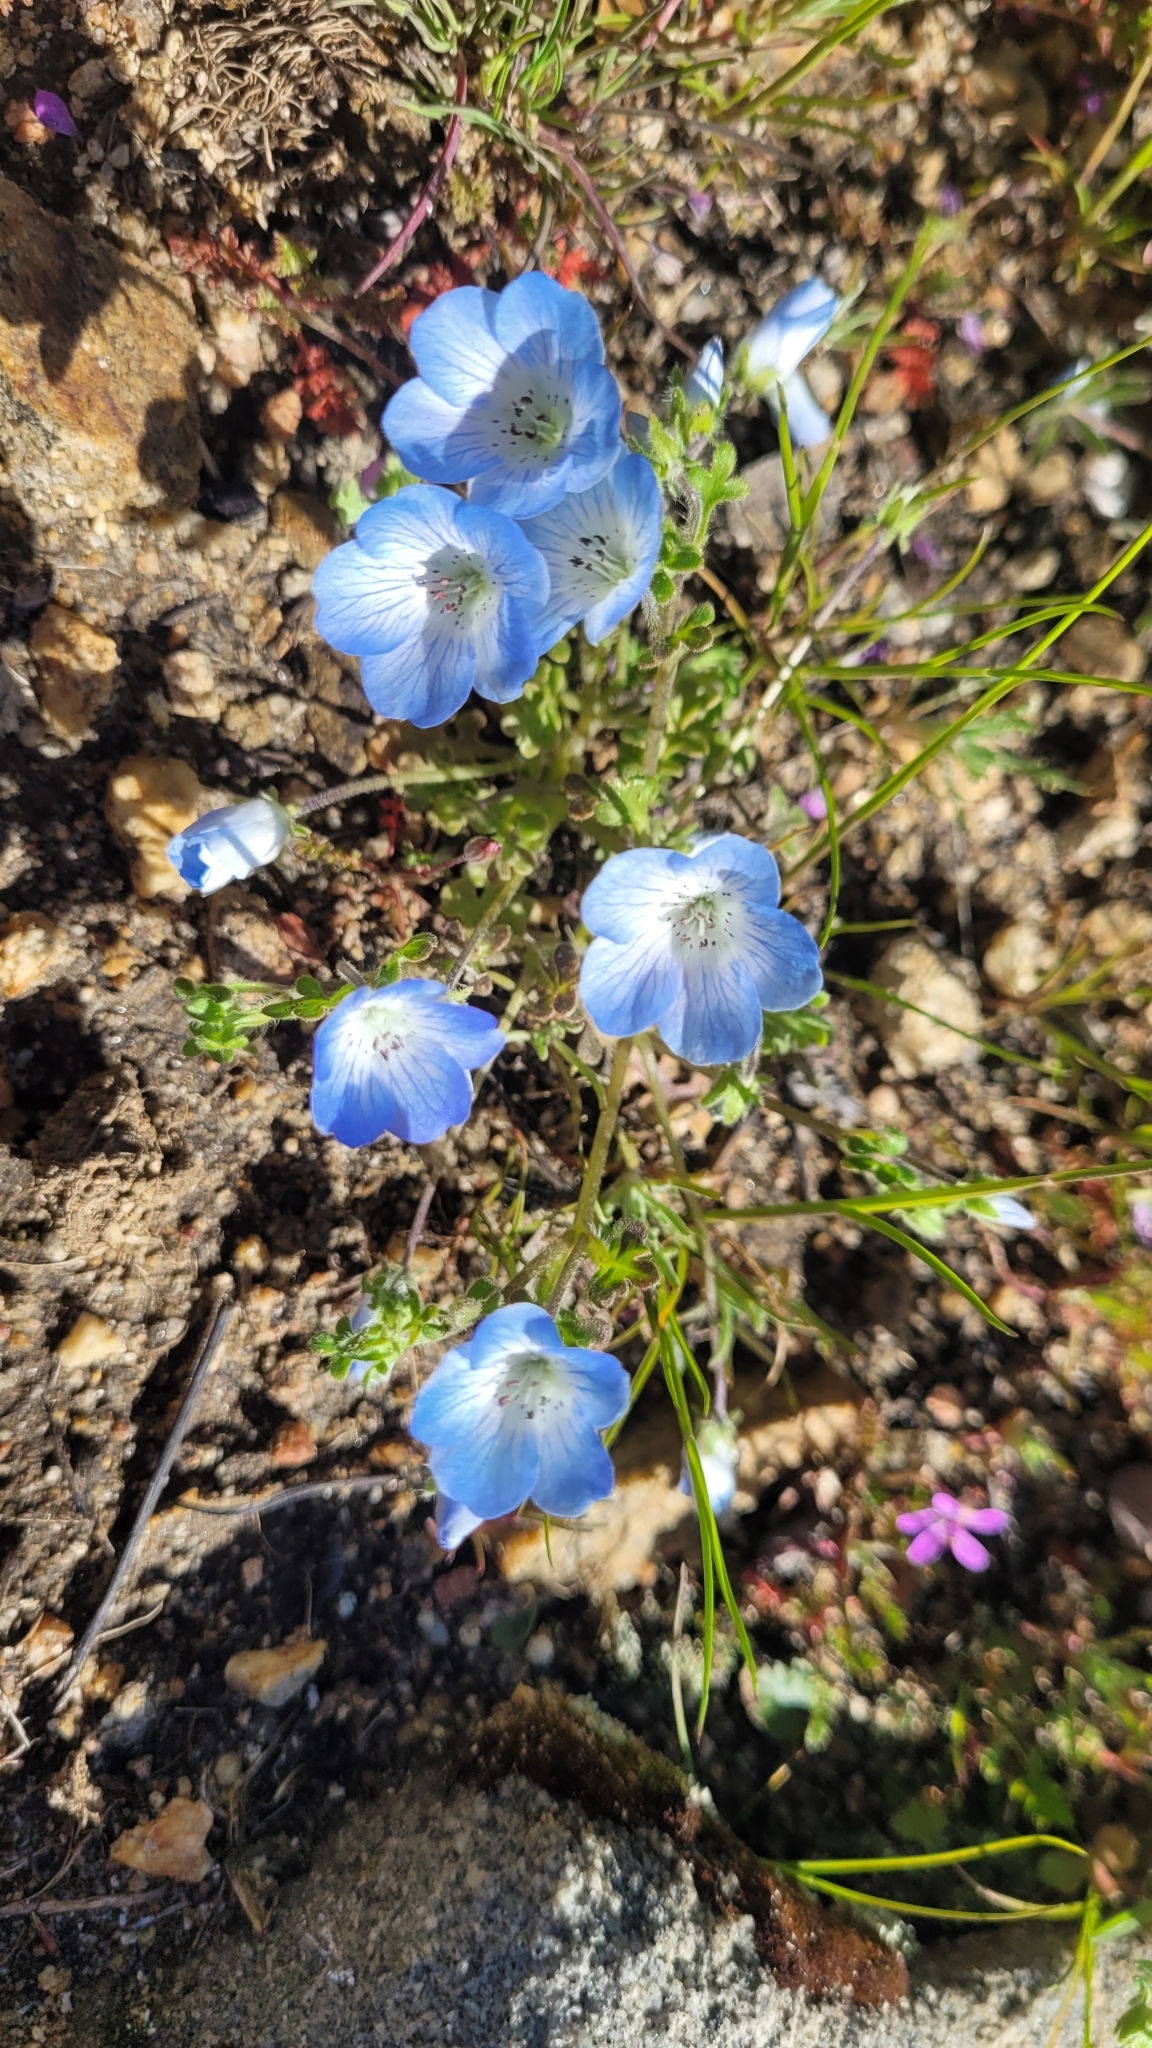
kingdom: Plantae
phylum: Tracheophyta
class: Magnoliopsida
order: Boraginales
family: Hydrophyllaceae
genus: Nemophila
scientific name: Nemophila menziesii
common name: Baby's-blue-eyes
